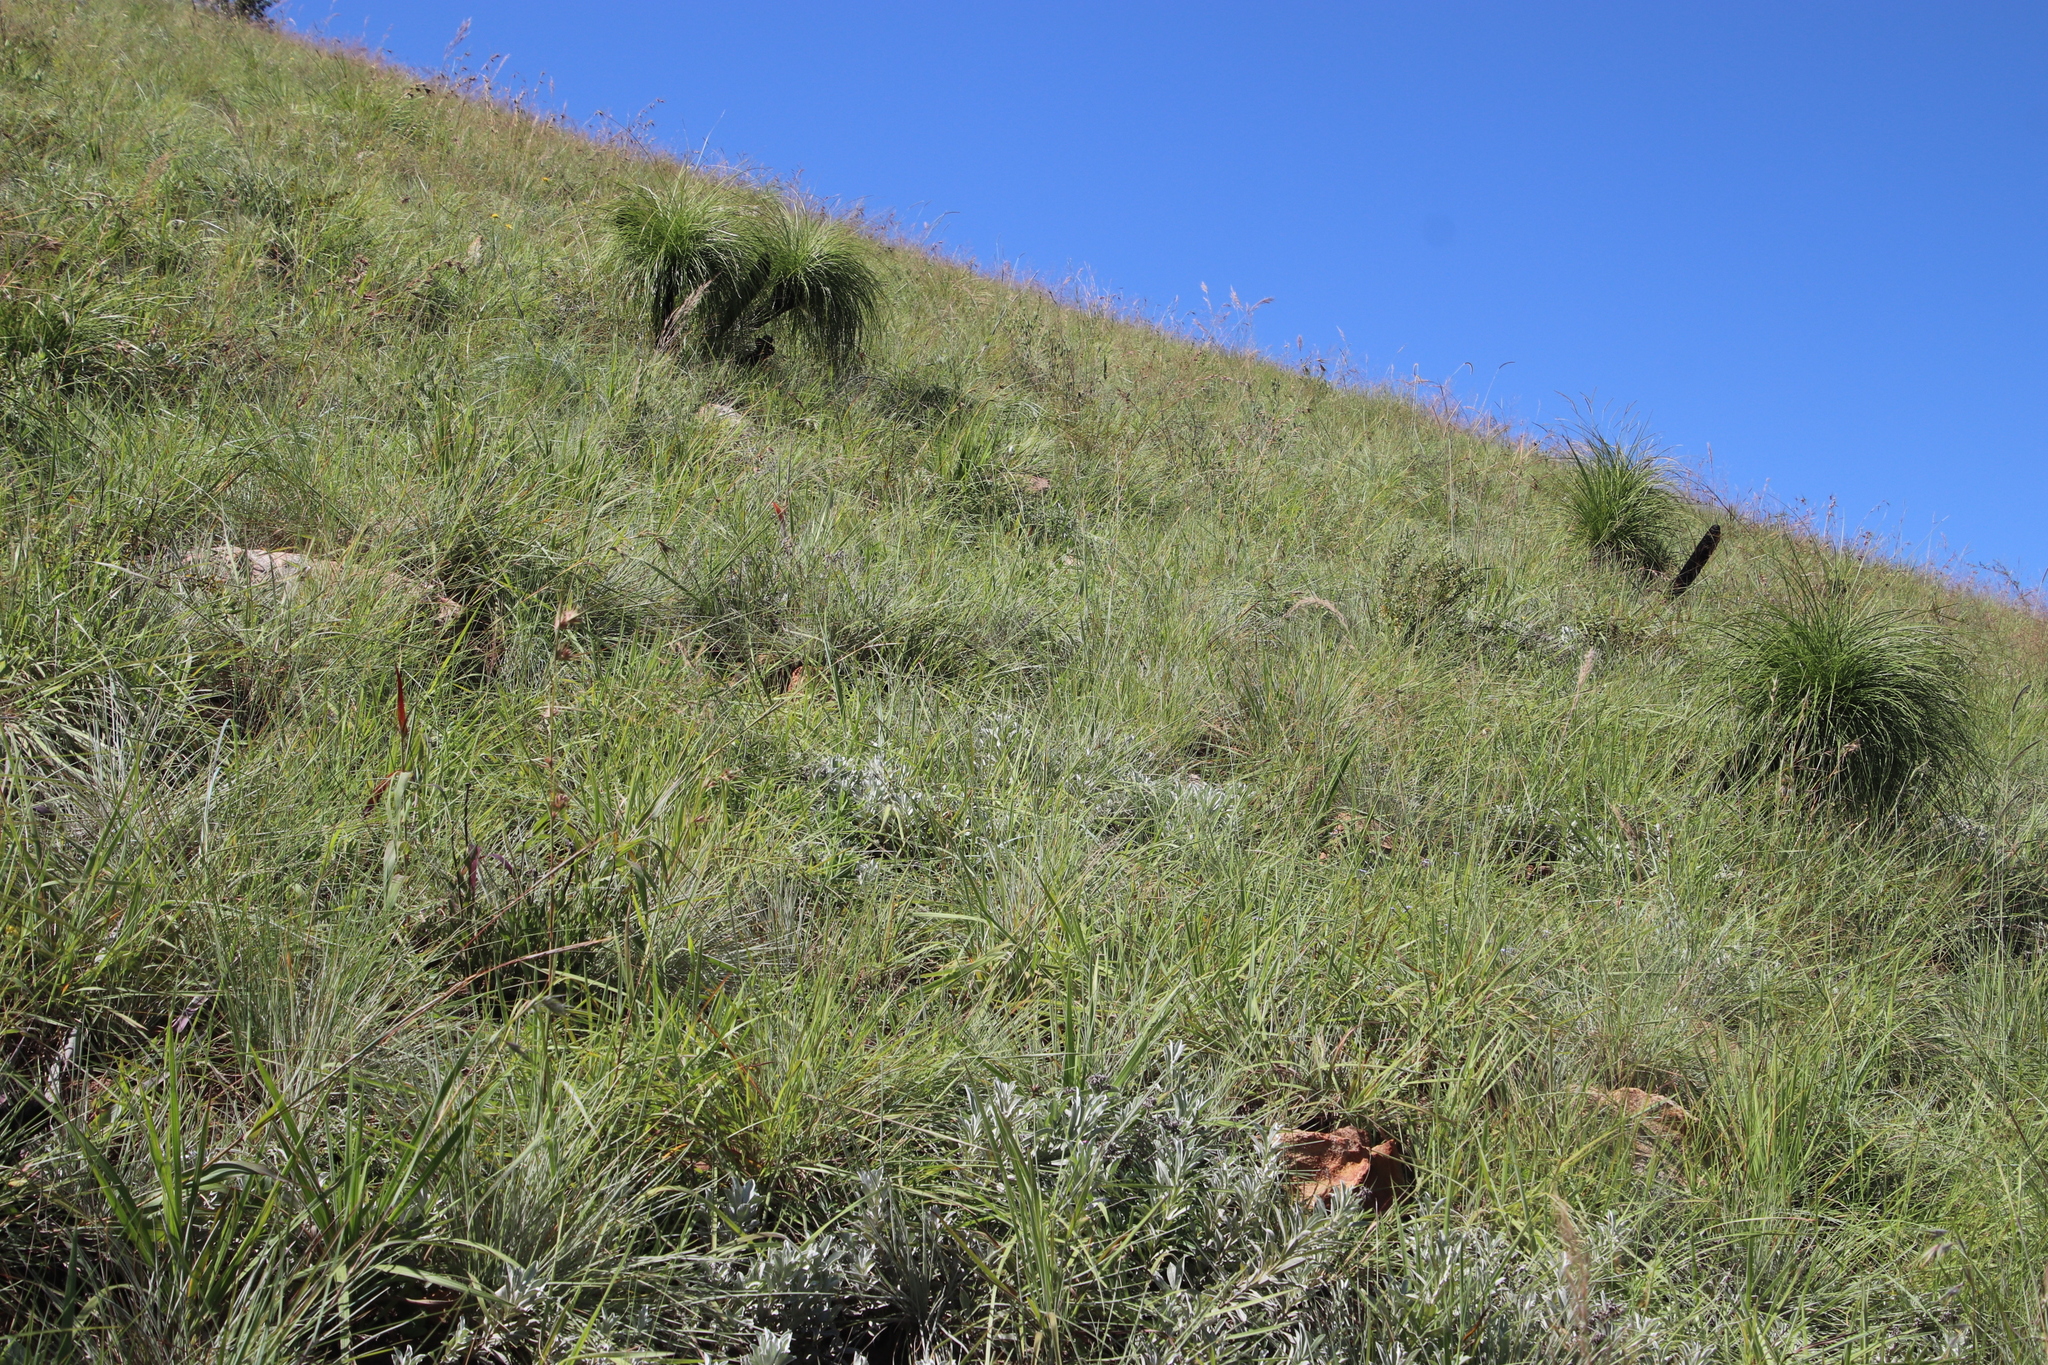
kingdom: Plantae
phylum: Tracheophyta
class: Liliopsida
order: Pandanales
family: Velloziaceae
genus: Xerophyta
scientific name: Xerophyta retinervis
